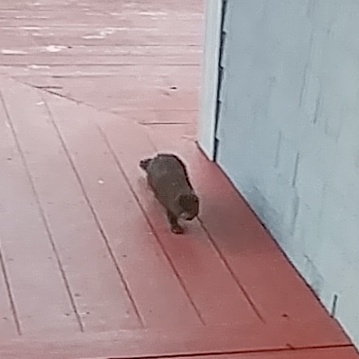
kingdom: Animalia
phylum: Chordata
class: Mammalia
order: Carnivora
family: Mustelidae
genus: Mustela
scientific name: Mustela
